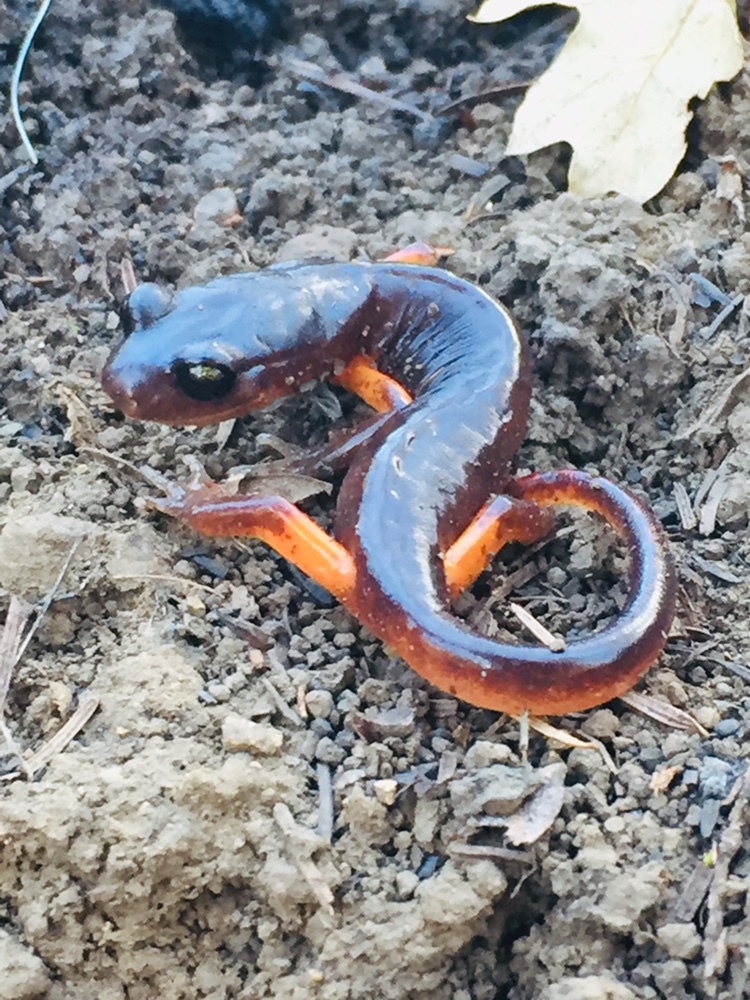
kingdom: Animalia
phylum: Chordata
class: Amphibia
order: Caudata
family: Plethodontidae
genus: Ensatina
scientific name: Ensatina eschscholtzii
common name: Ensatina
